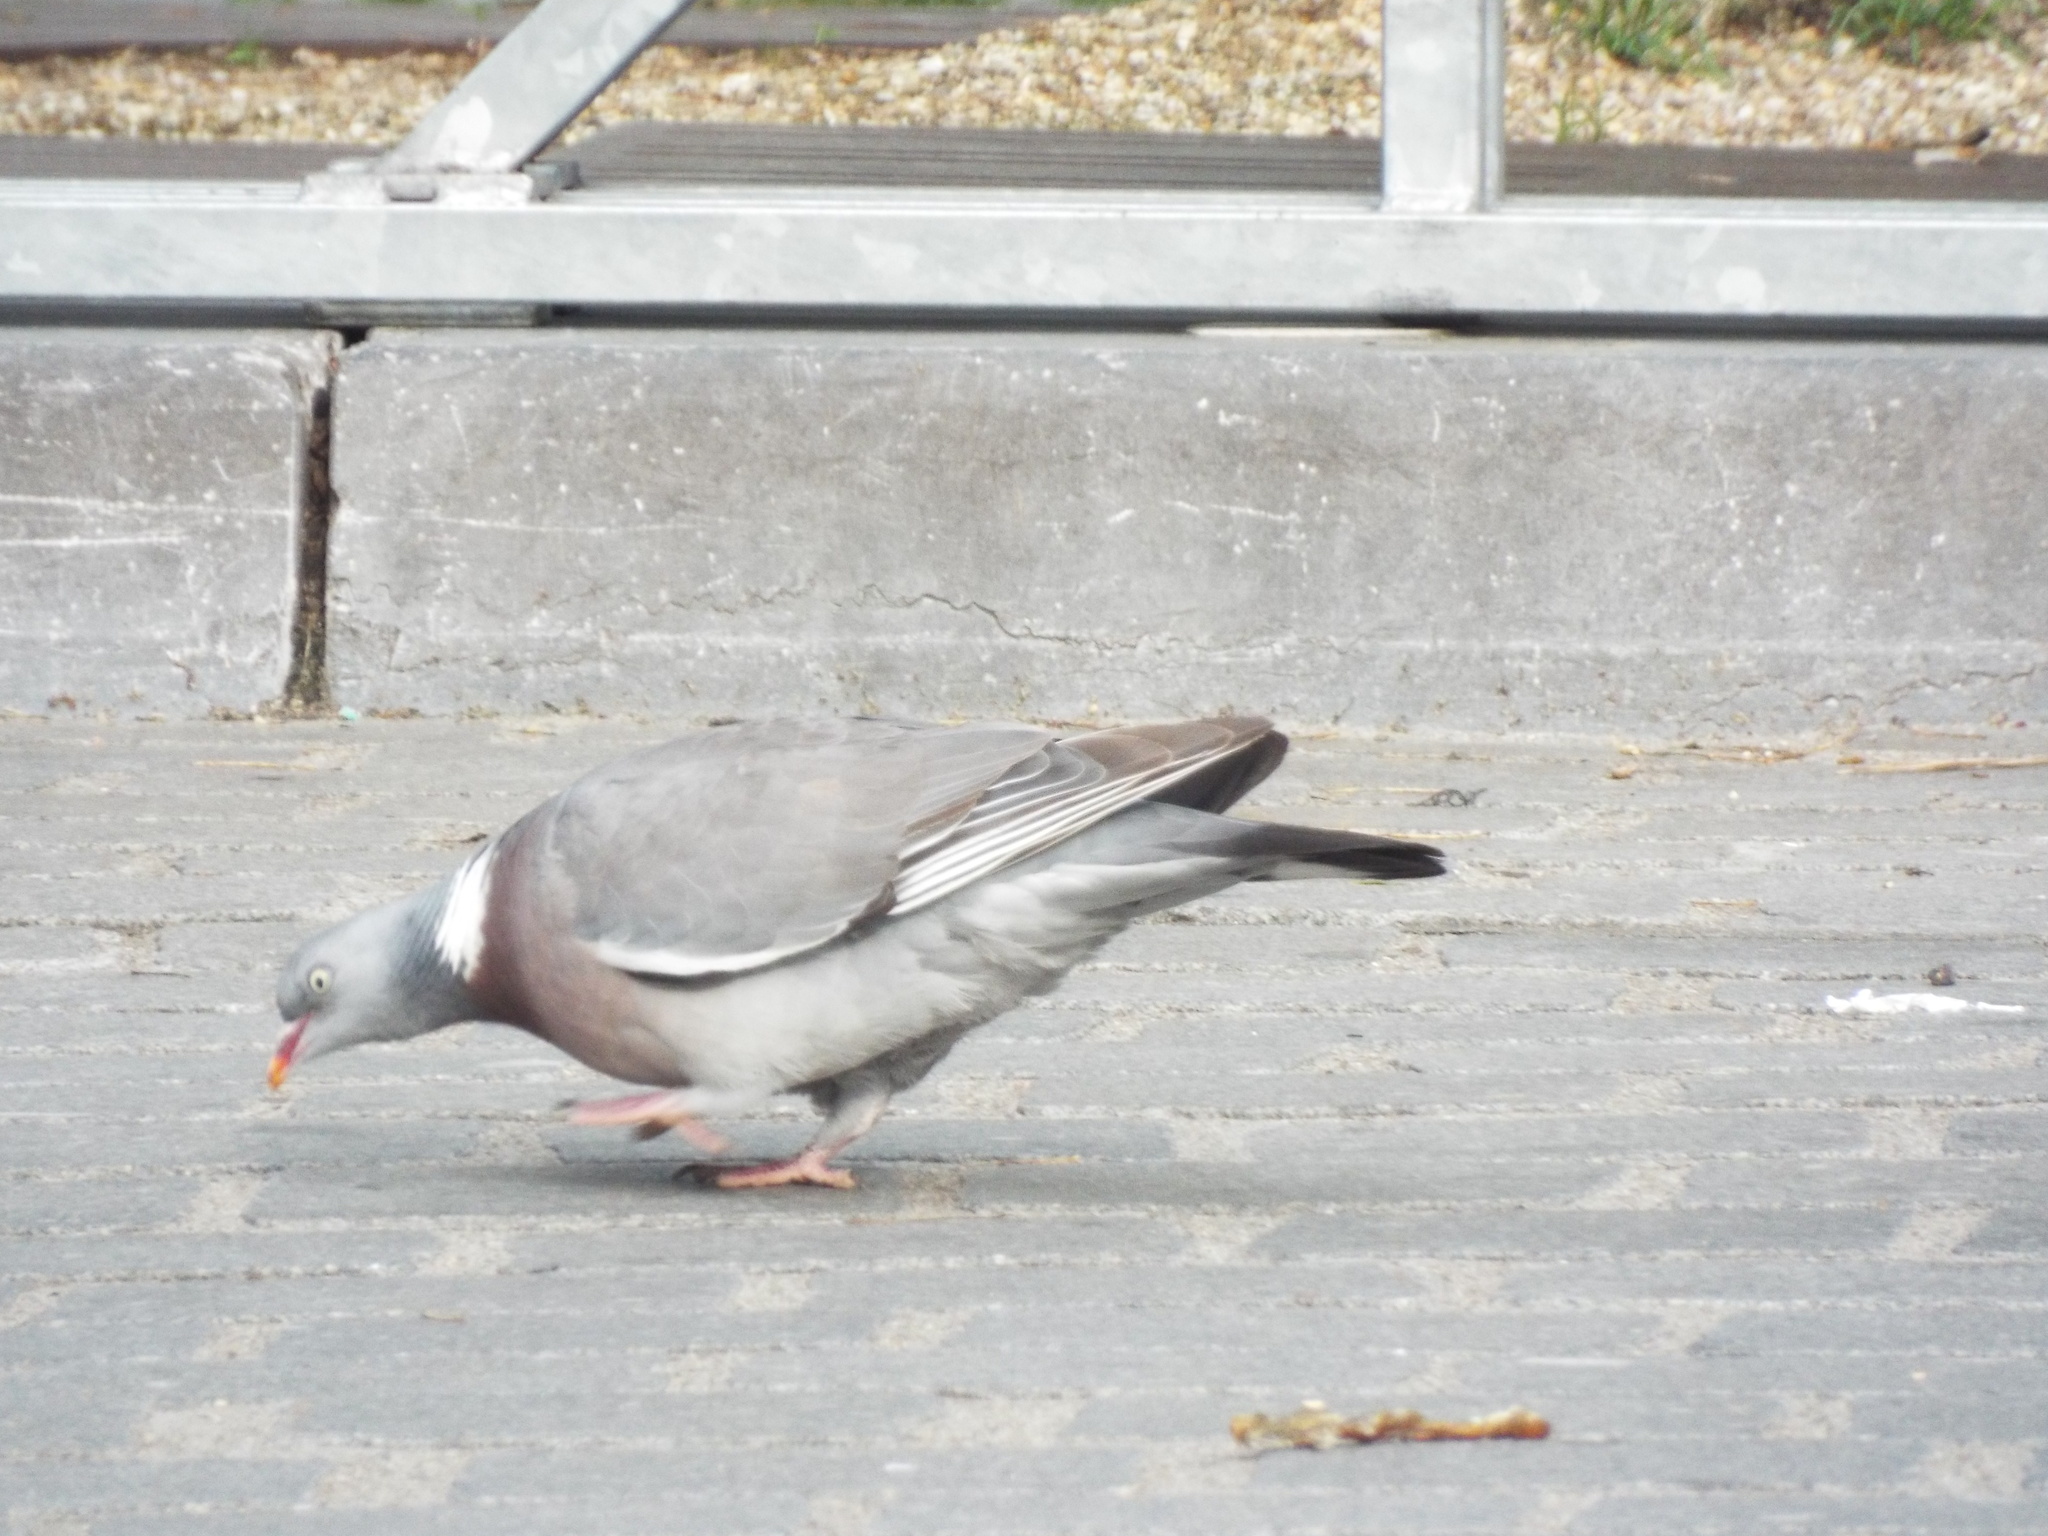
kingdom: Animalia
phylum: Chordata
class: Aves
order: Columbiformes
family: Columbidae
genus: Columba
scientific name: Columba palumbus
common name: Common wood pigeon
